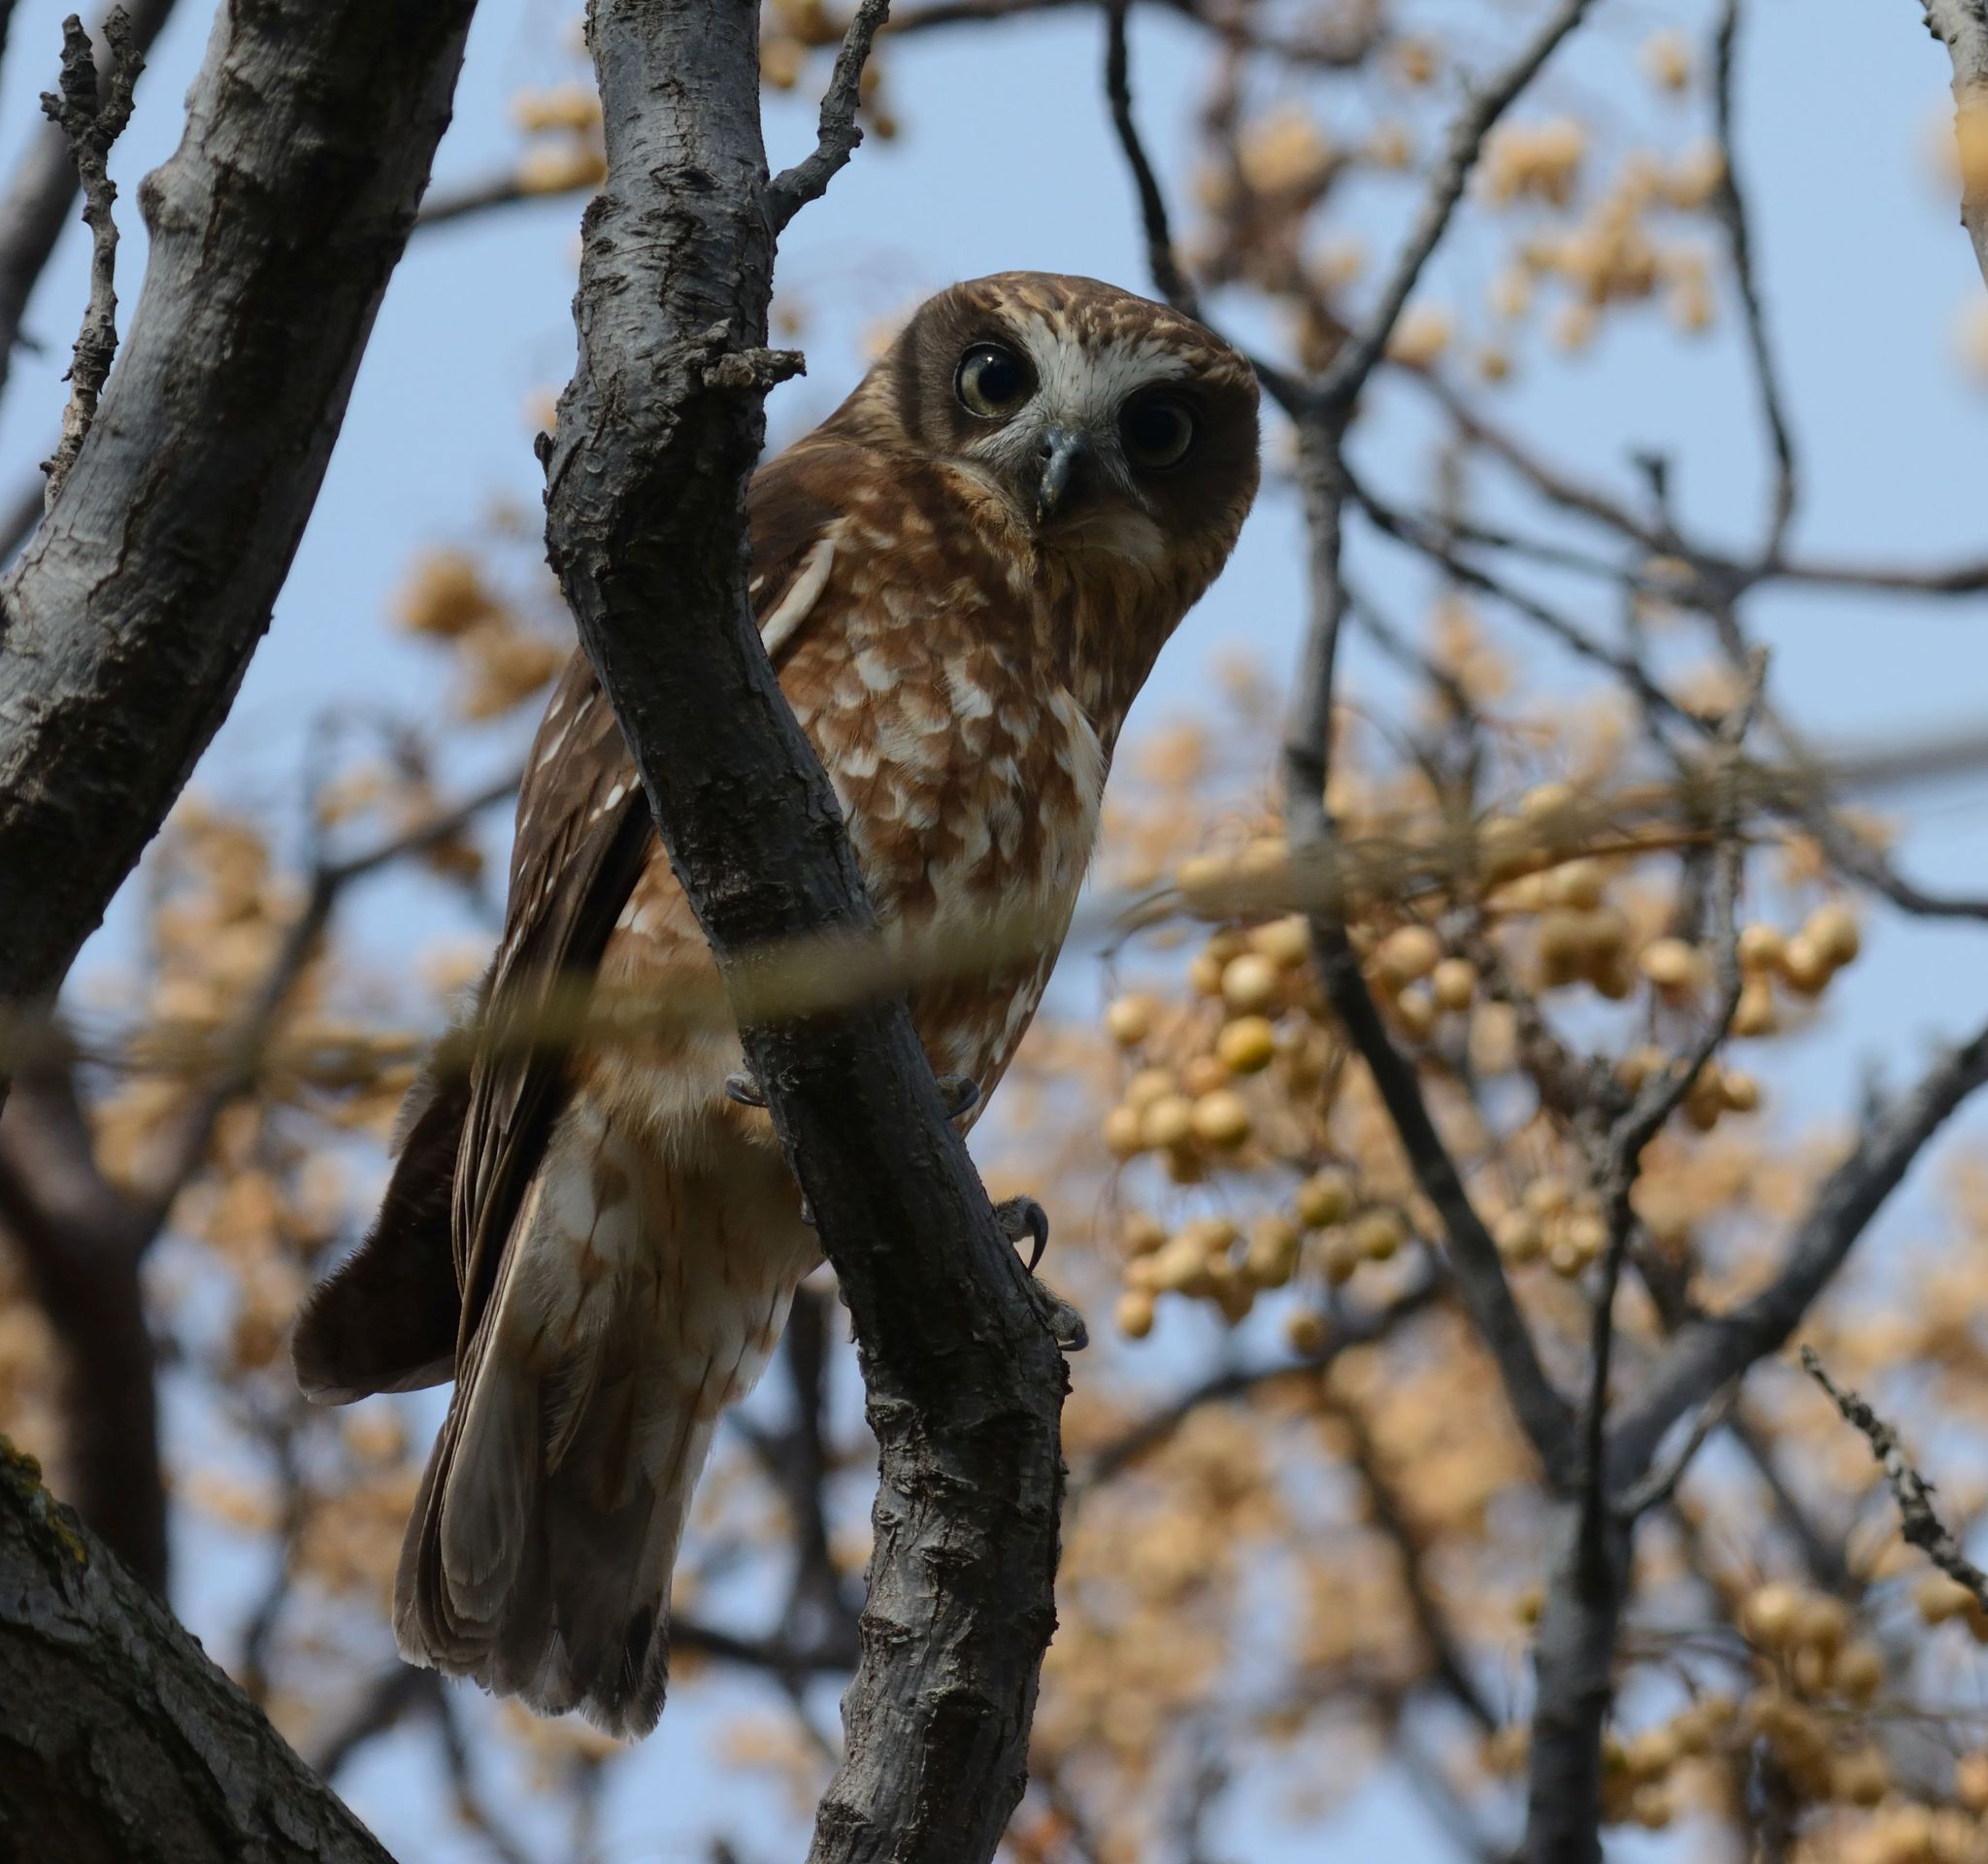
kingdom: Animalia
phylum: Chordata
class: Aves
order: Strigiformes
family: Strigidae
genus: Ninox
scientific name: Ninox boobook
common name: Southern boobook
